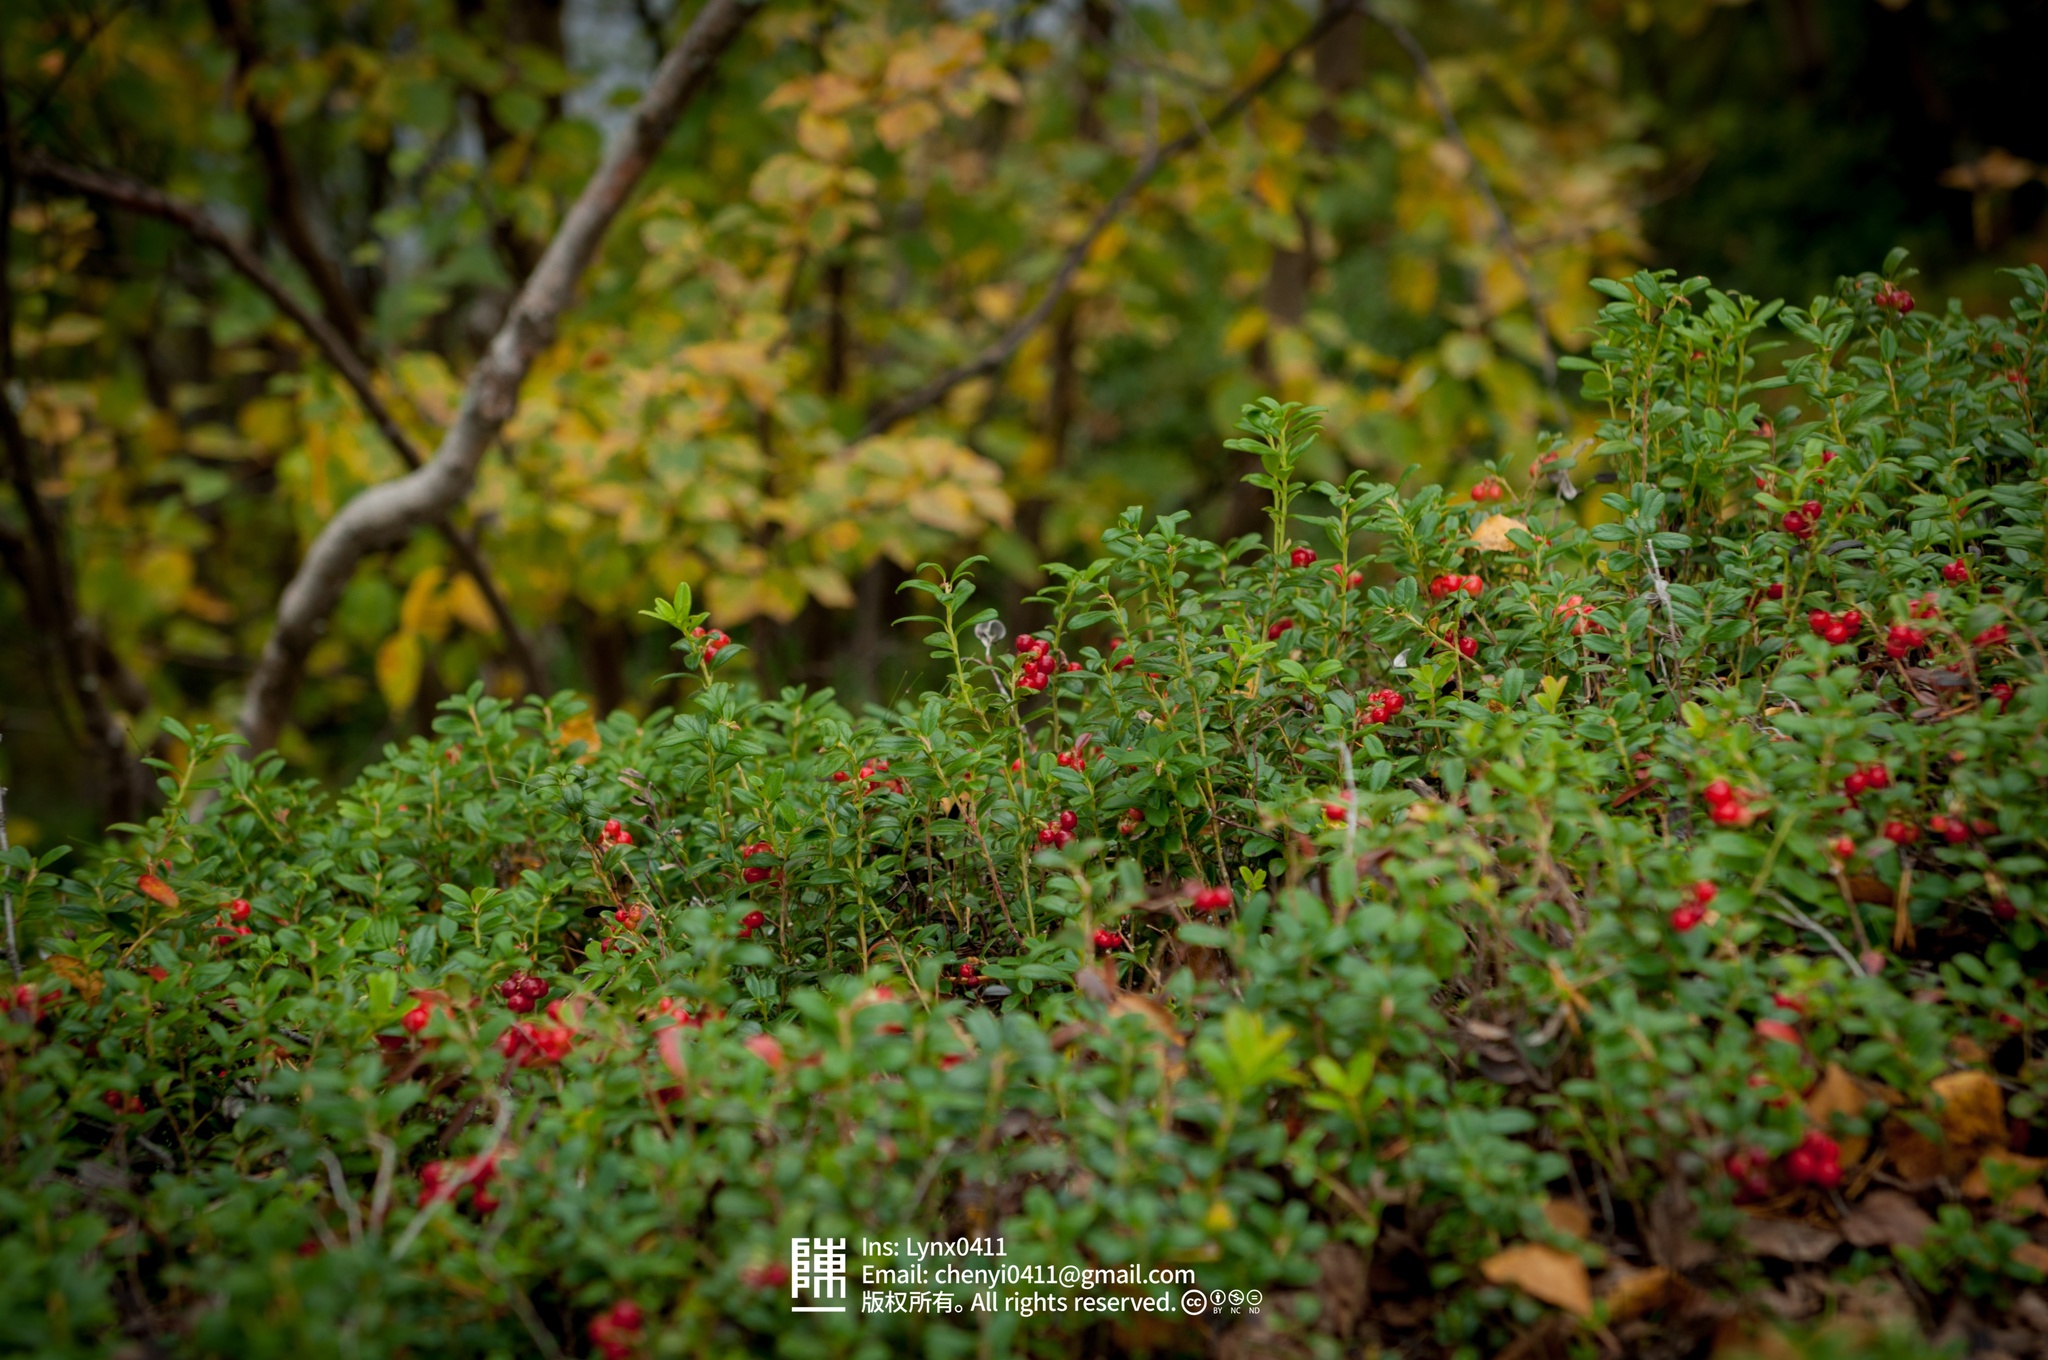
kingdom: Plantae
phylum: Tracheophyta
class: Magnoliopsida
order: Ericales
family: Ericaceae
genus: Vaccinium
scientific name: Vaccinium vitis-idaea
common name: Cowberry
